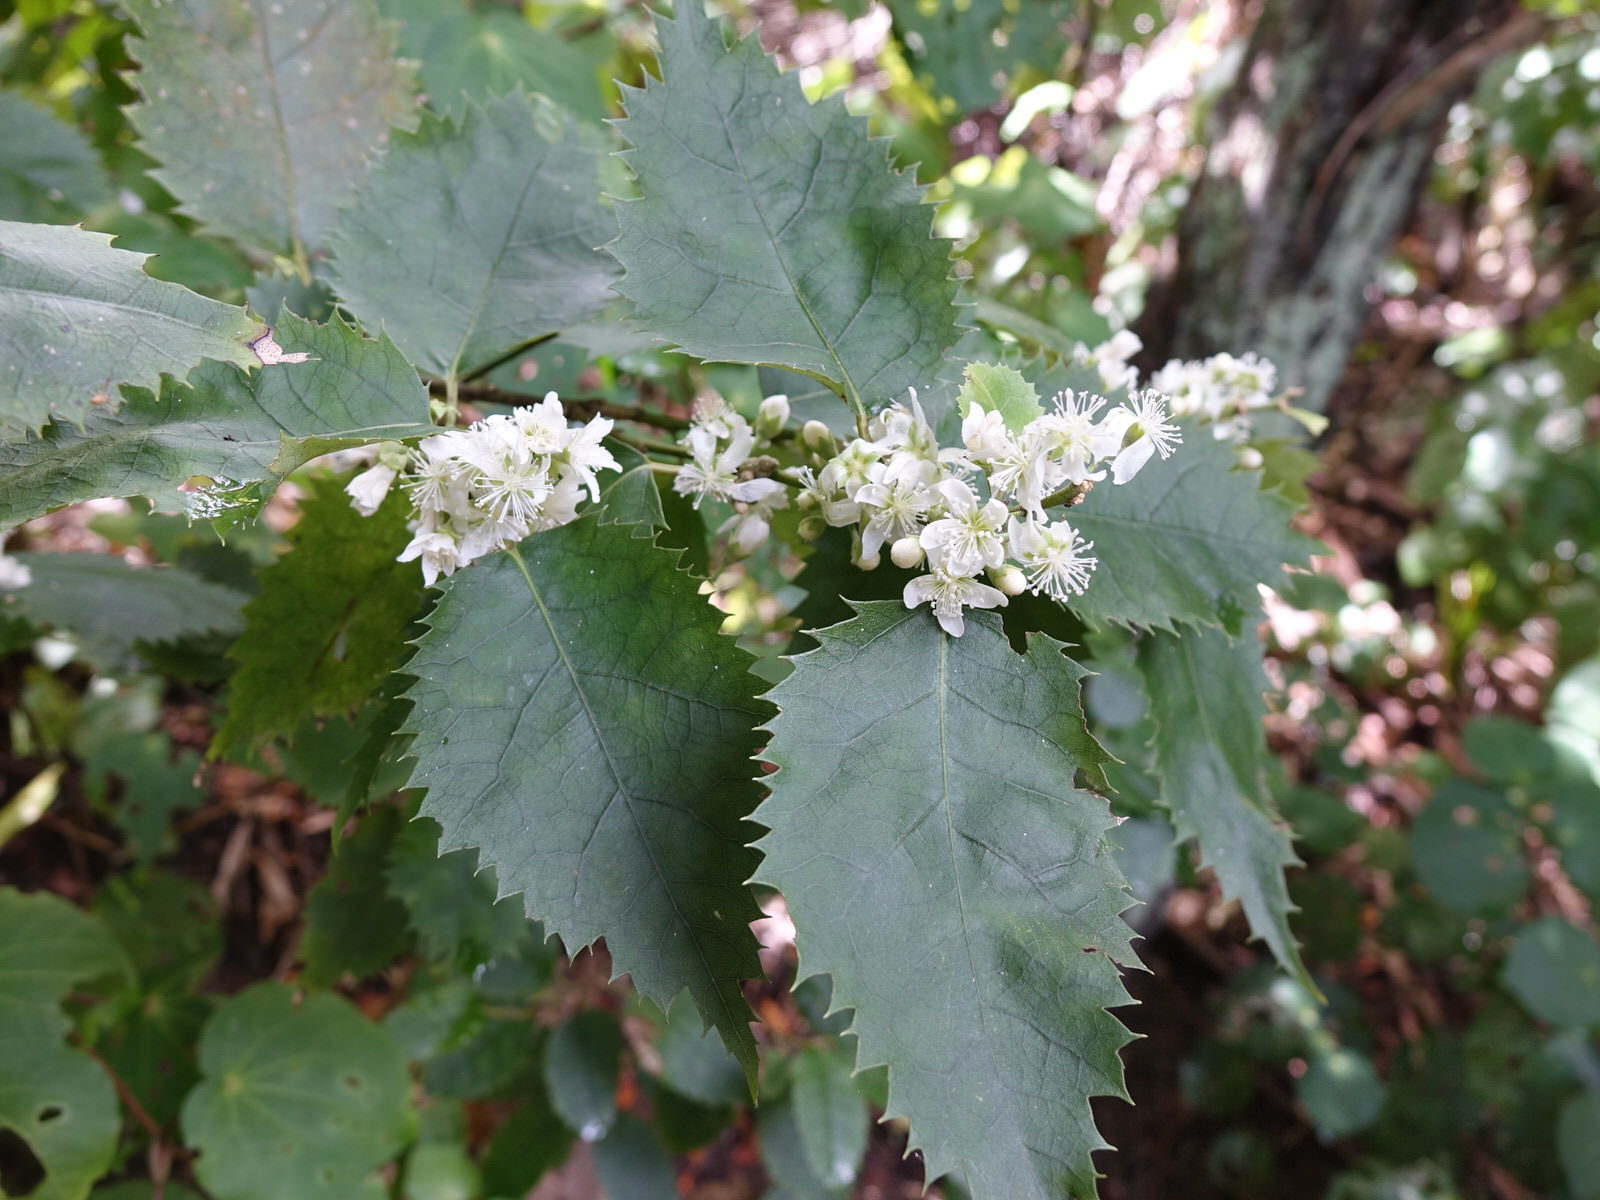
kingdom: Plantae
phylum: Tracheophyta
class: Magnoliopsida
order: Malvales
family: Malvaceae
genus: Hoheria
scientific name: Hoheria populnea
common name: Lacebark
